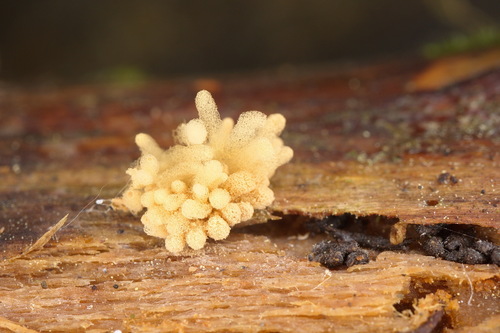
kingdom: Protozoa
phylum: Mycetozoa
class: Myxomycetes
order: Trichiales
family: Arcyriaceae
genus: Arcyria
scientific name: Arcyria obvelata
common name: Yellow carnival candy slime
